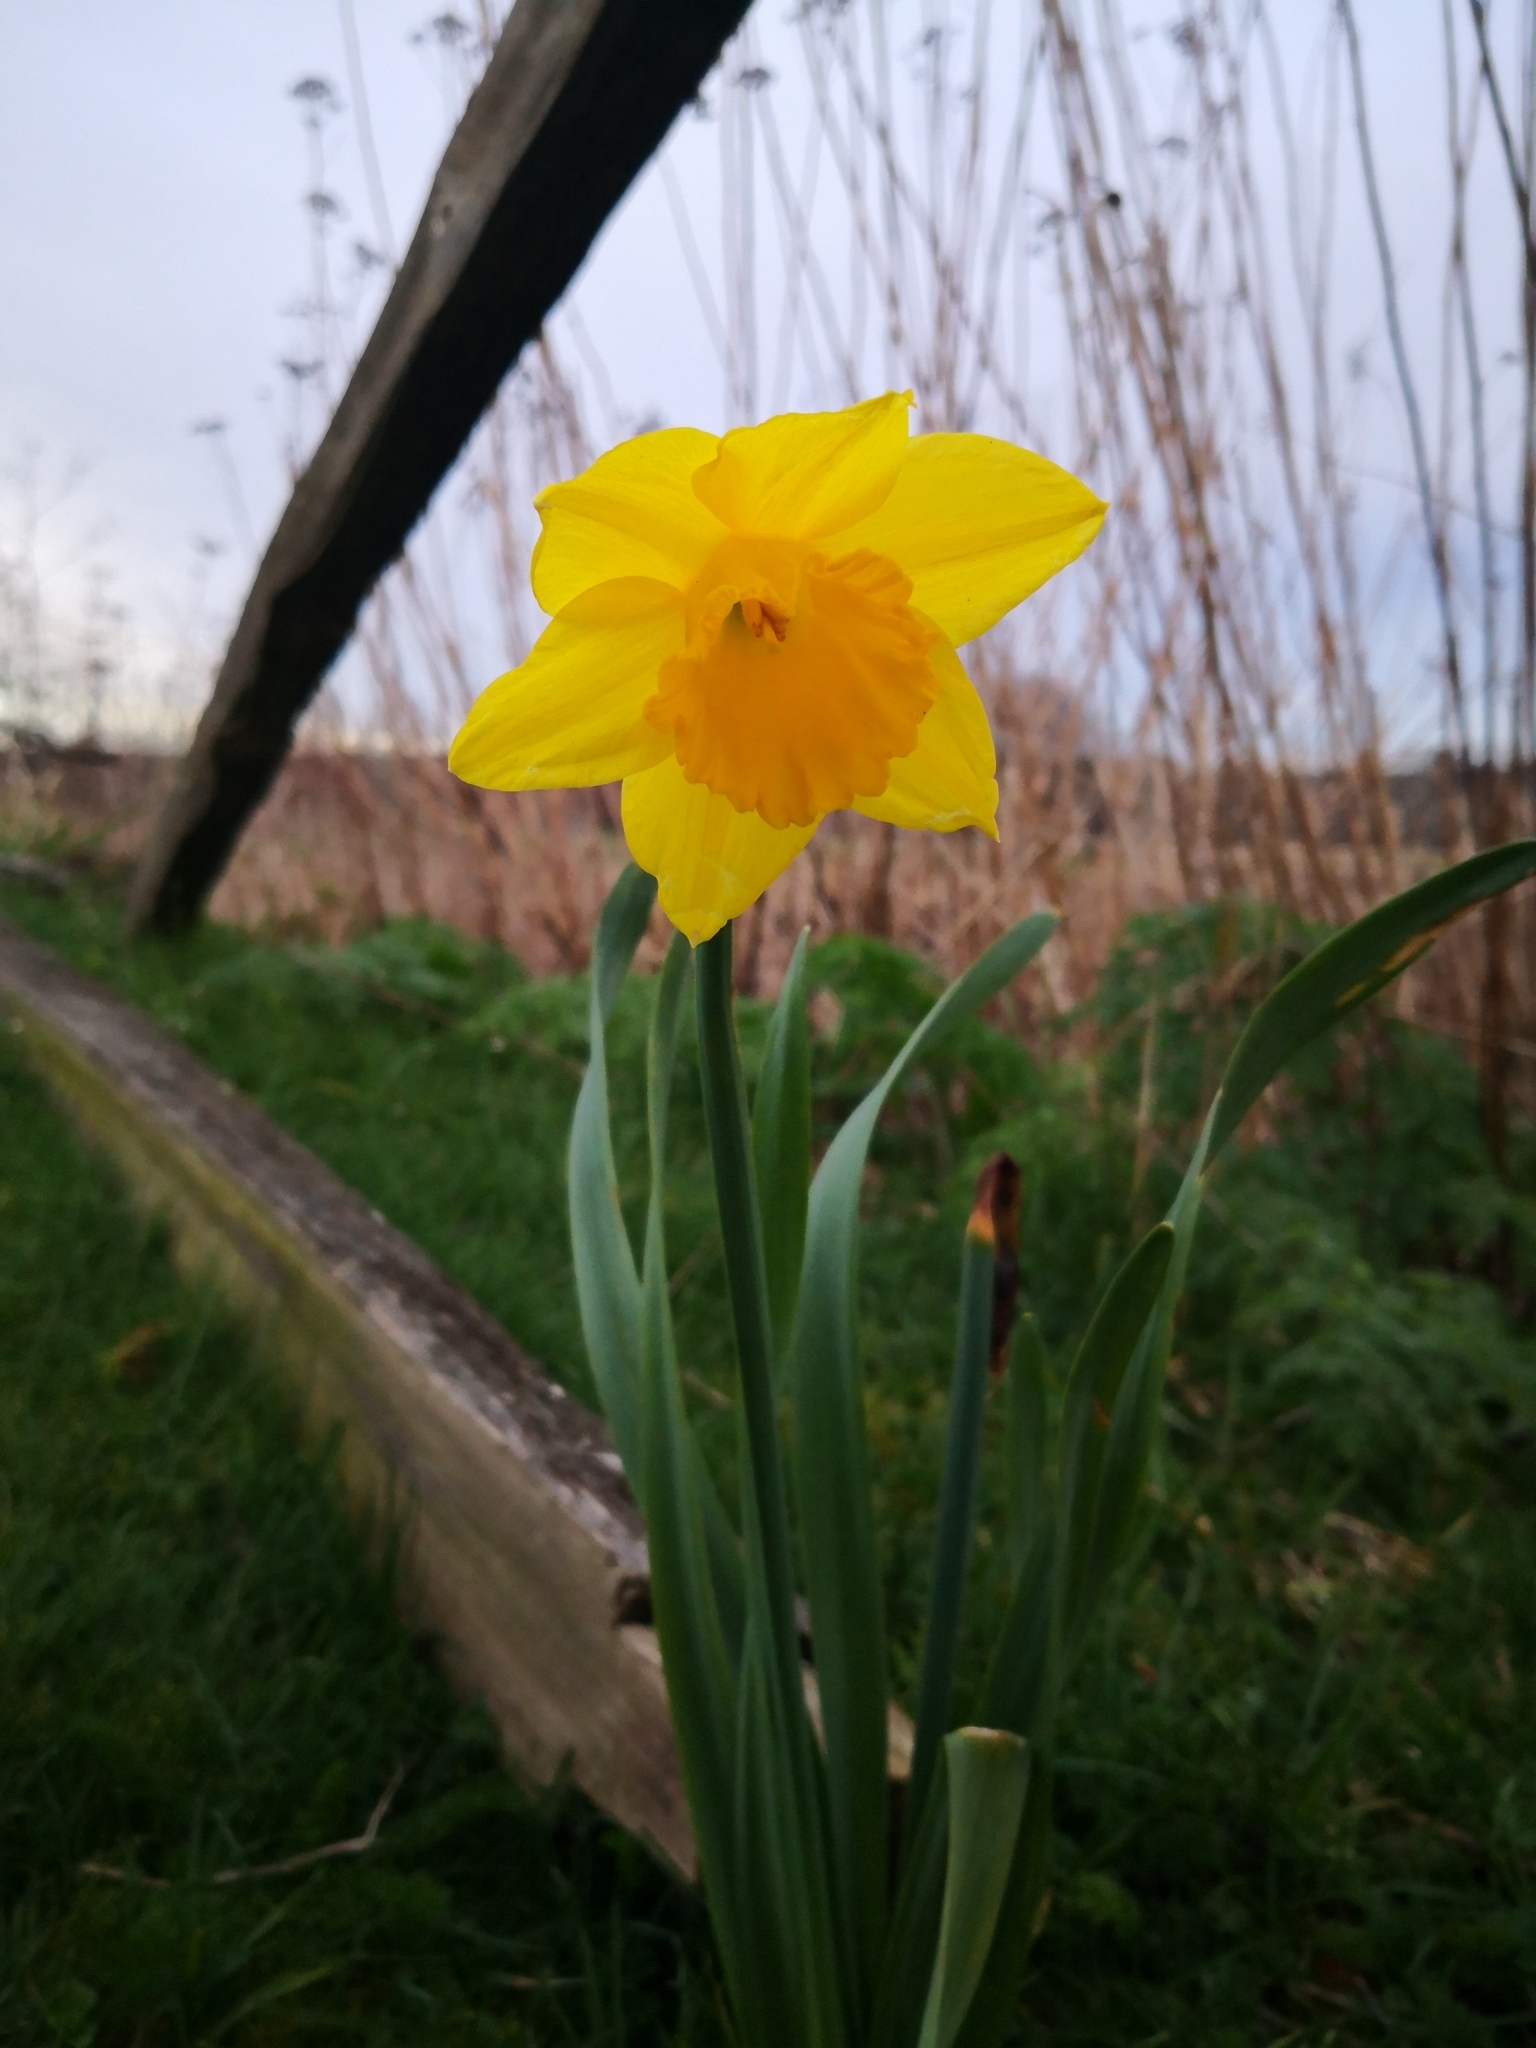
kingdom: Plantae
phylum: Tracheophyta
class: Liliopsida
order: Asparagales
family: Amaryllidaceae
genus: Narcissus
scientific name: Narcissus pseudonarcissus
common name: Daffodil
